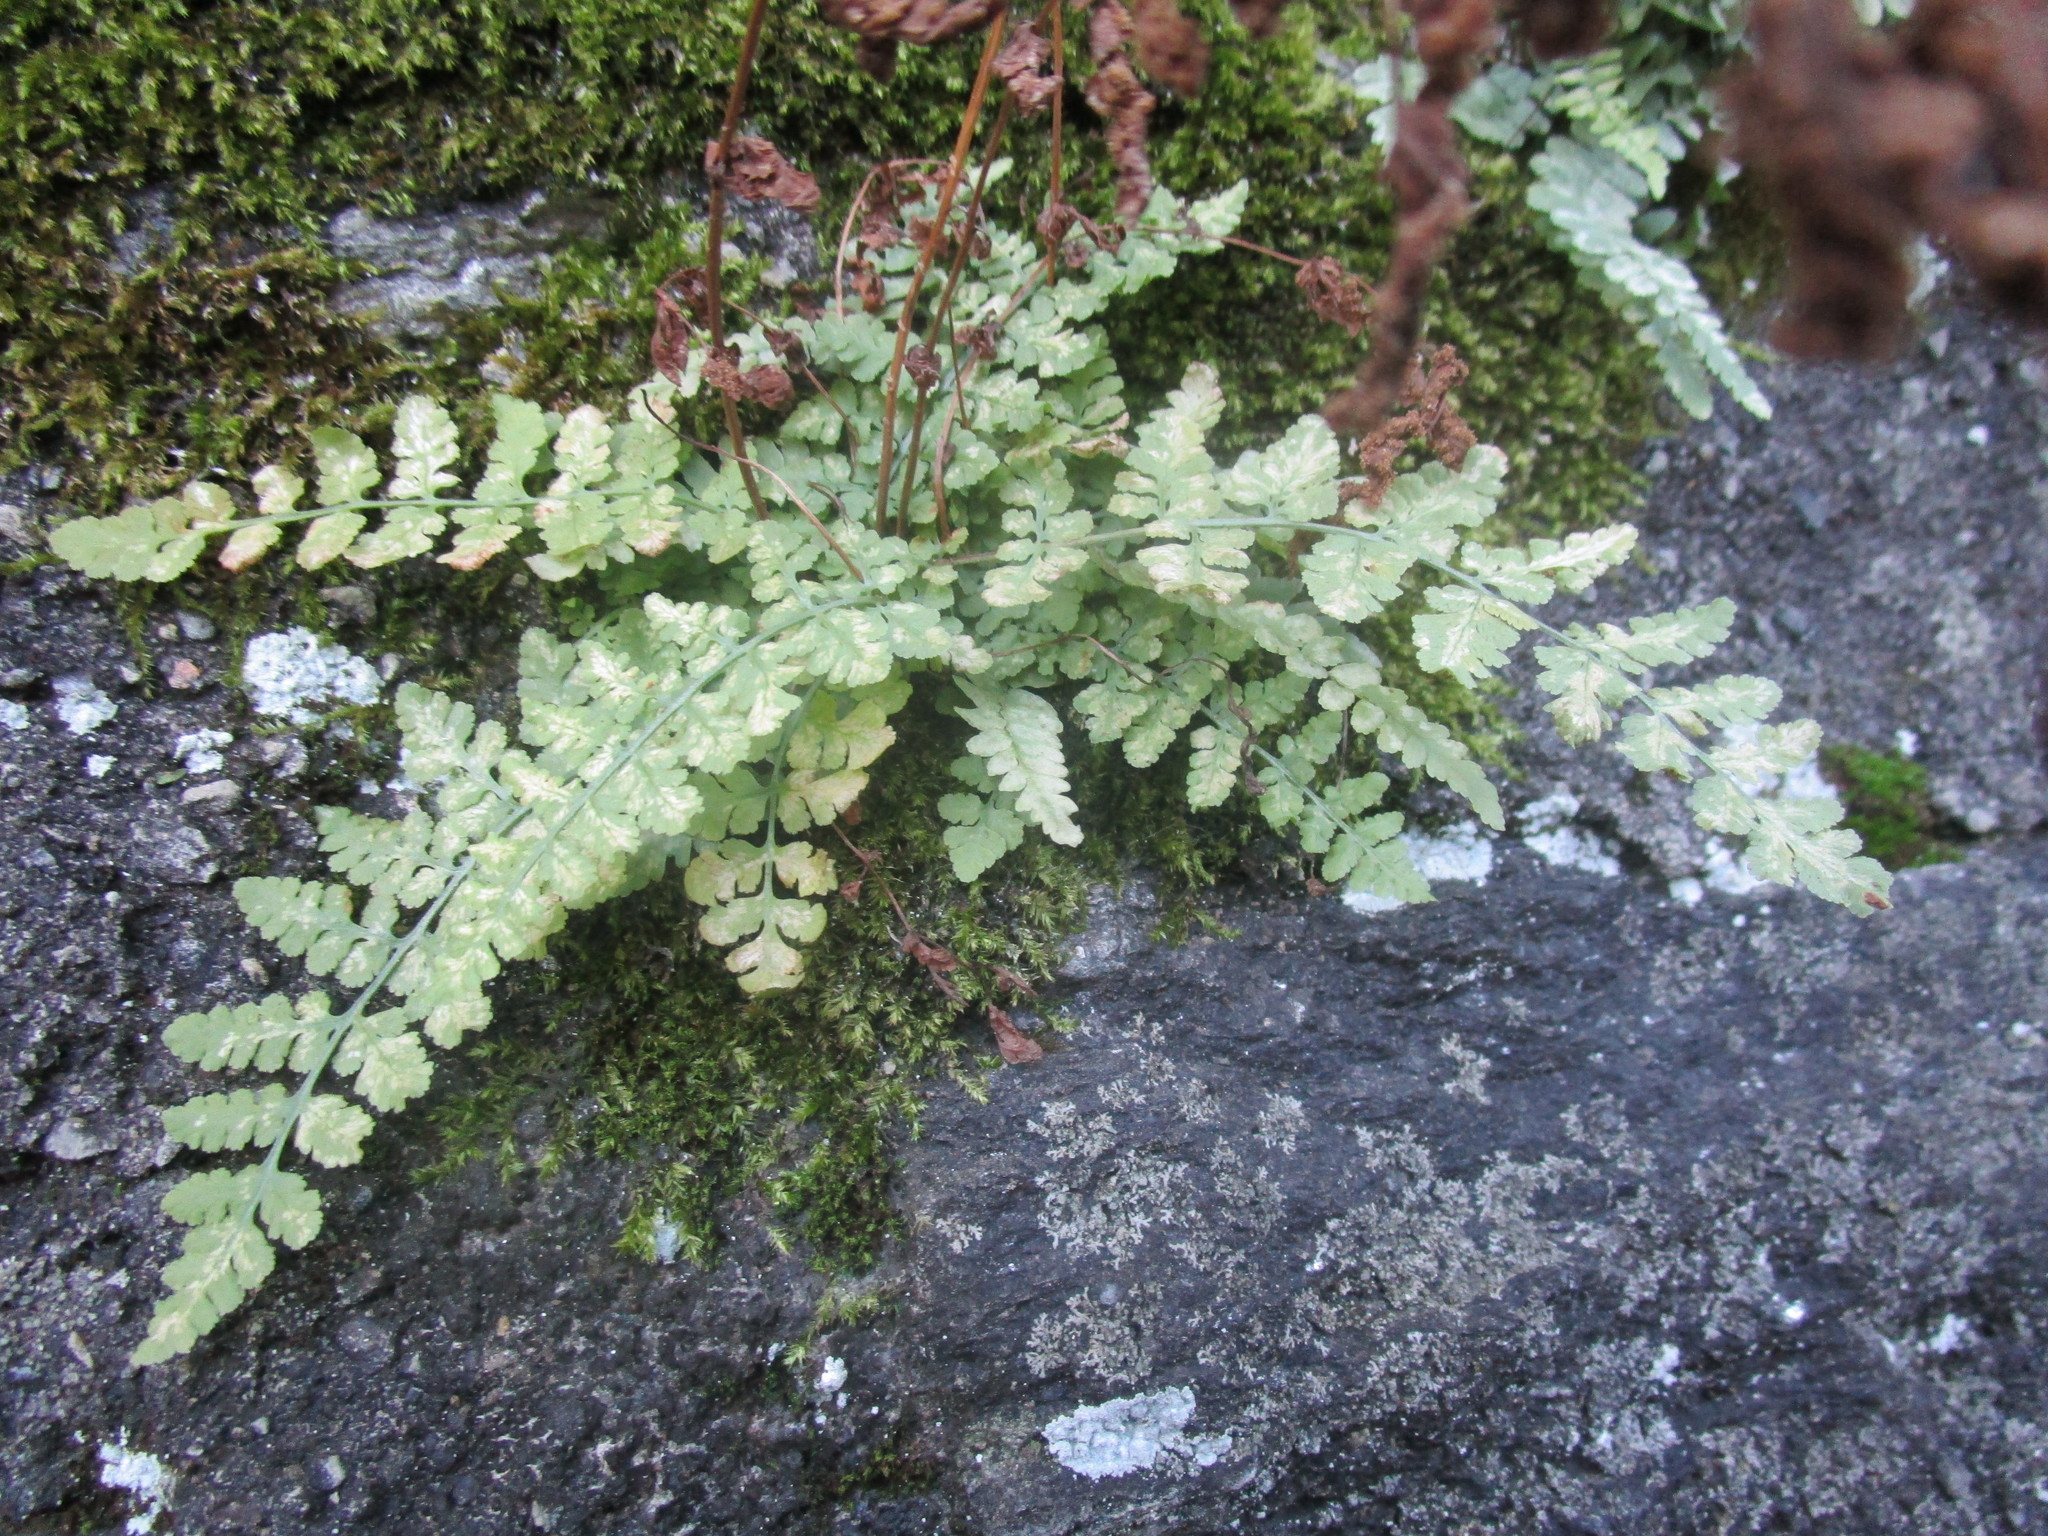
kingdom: Plantae
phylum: Tracheophyta
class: Polypodiopsida
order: Polypodiales
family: Woodsiaceae
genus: Physematium
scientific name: Physematium obtusum
